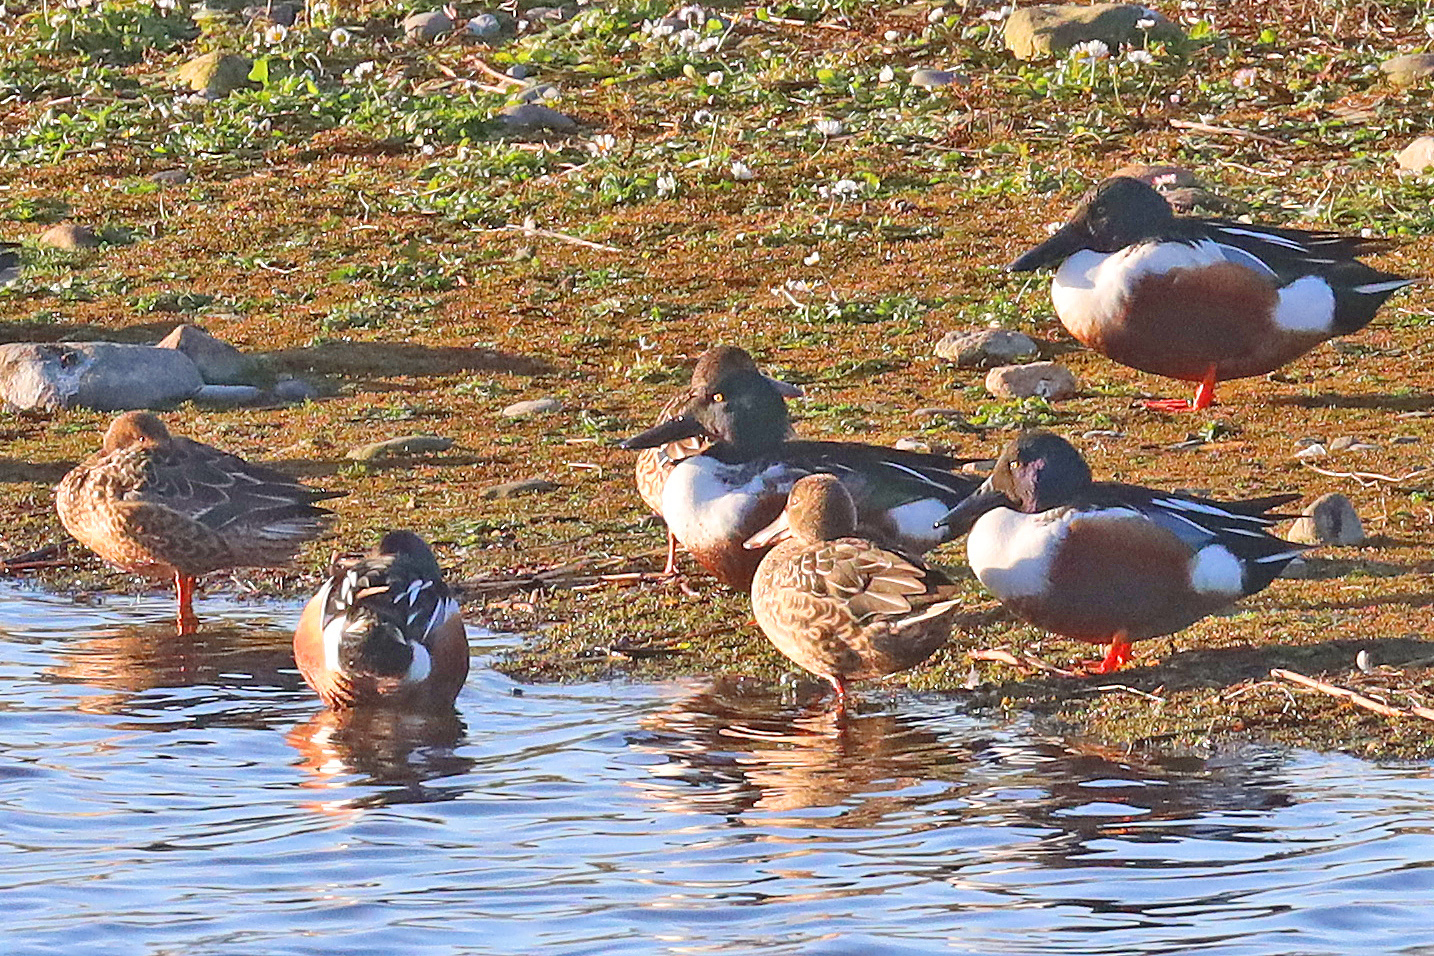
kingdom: Animalia
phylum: Chordata
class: Aves
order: Anseriformes
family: Anatidae
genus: Spatula
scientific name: Spatula clypeata
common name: Northern shoveler
